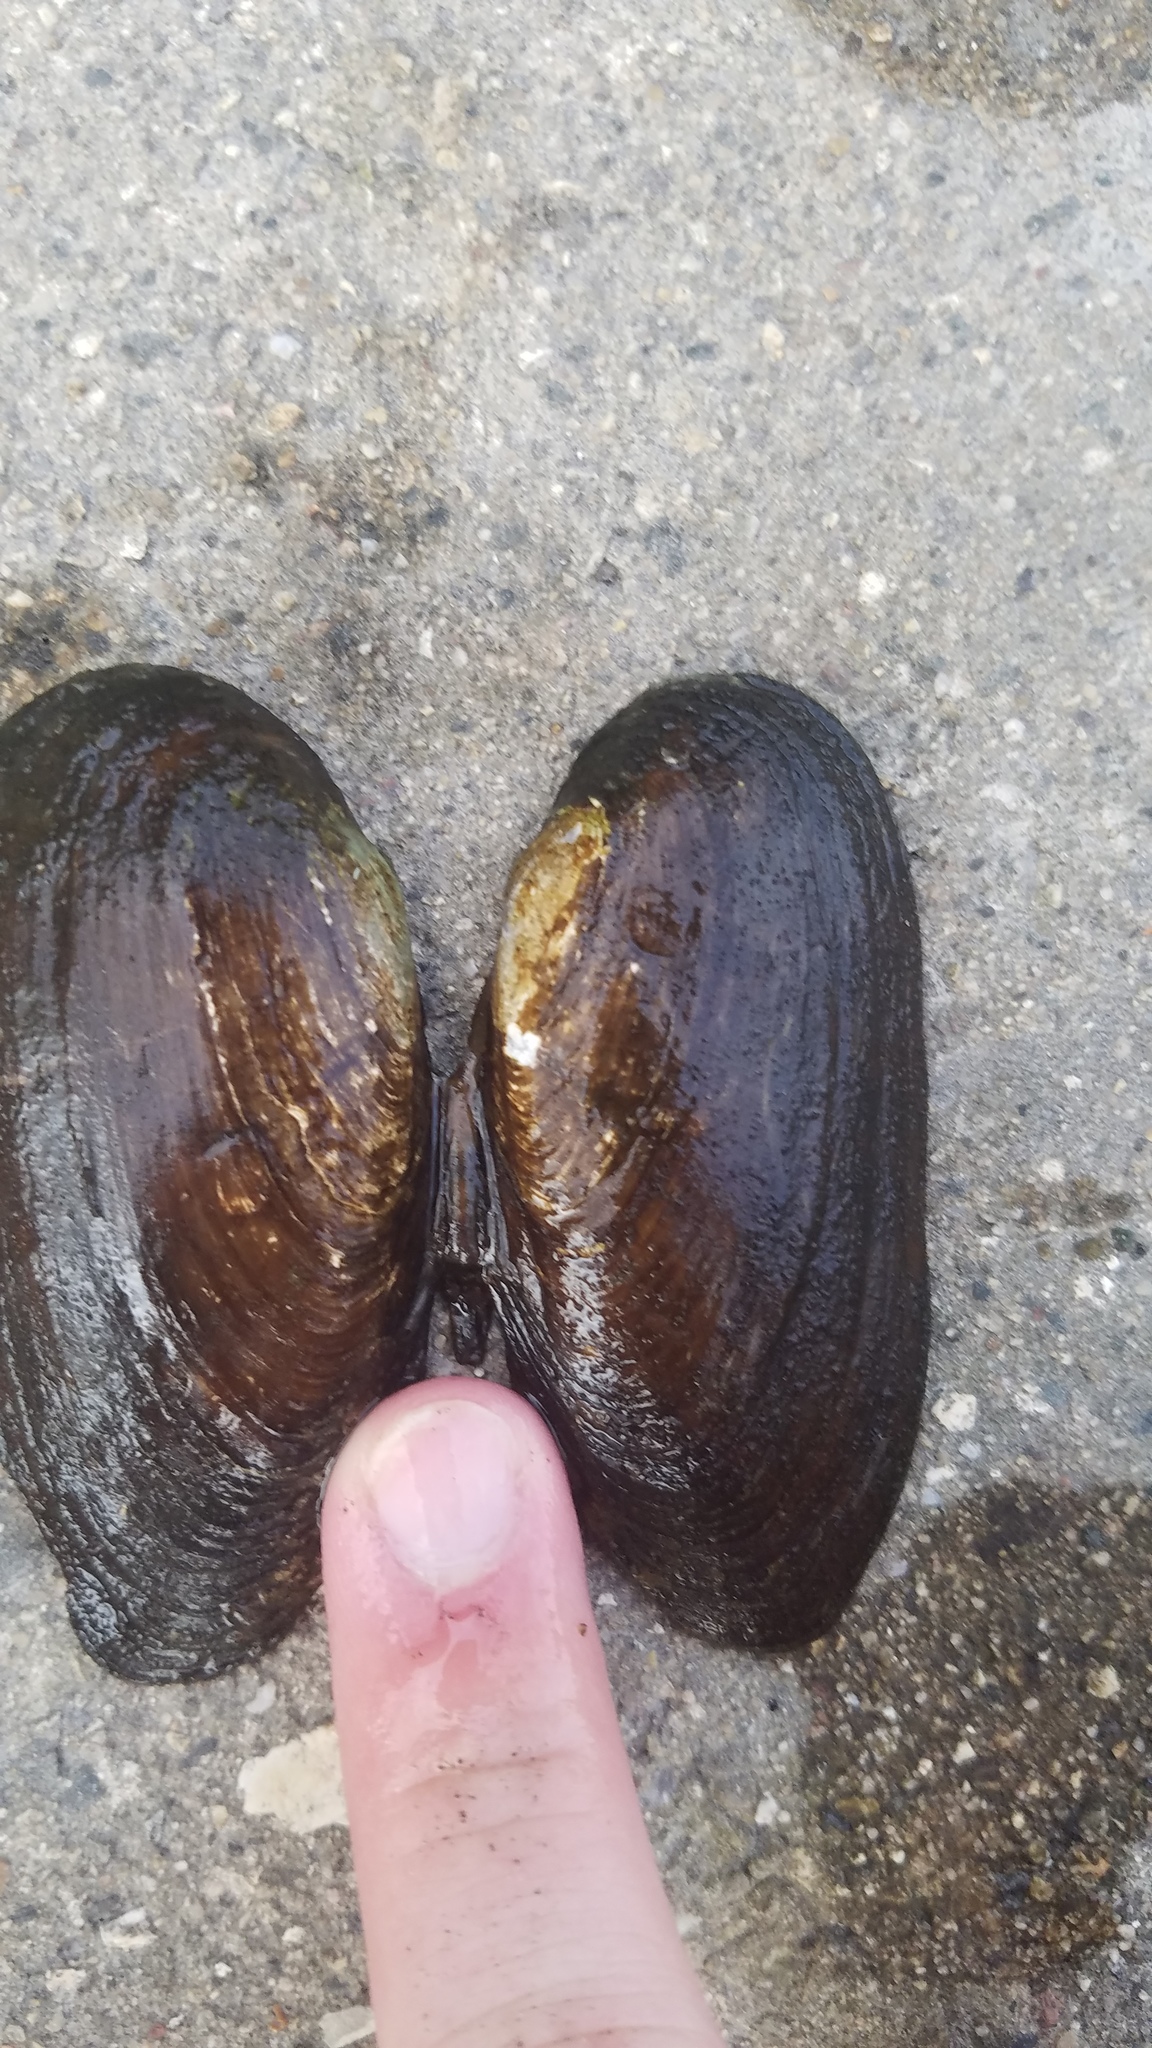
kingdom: Animalia
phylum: Mollusca
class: Bivalvia
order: Unionida
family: Unionidae
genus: Eurynia
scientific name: Eurynia dilatata
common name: Spike
